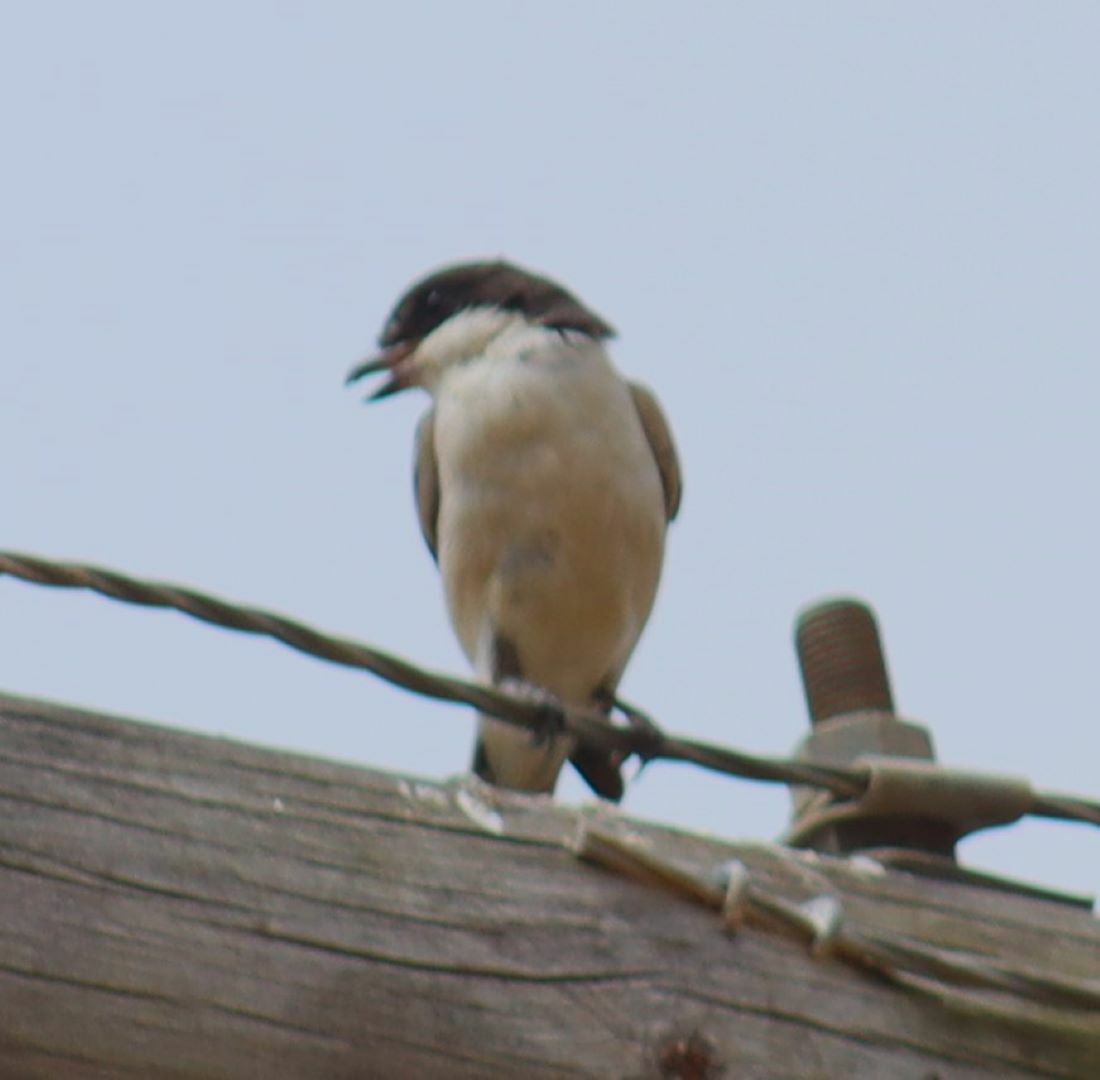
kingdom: Animalia
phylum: Chordata
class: Aves
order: Passeriformes
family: Laniidae
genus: Lanius
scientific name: Lanius collaris
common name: Southern fiscal
